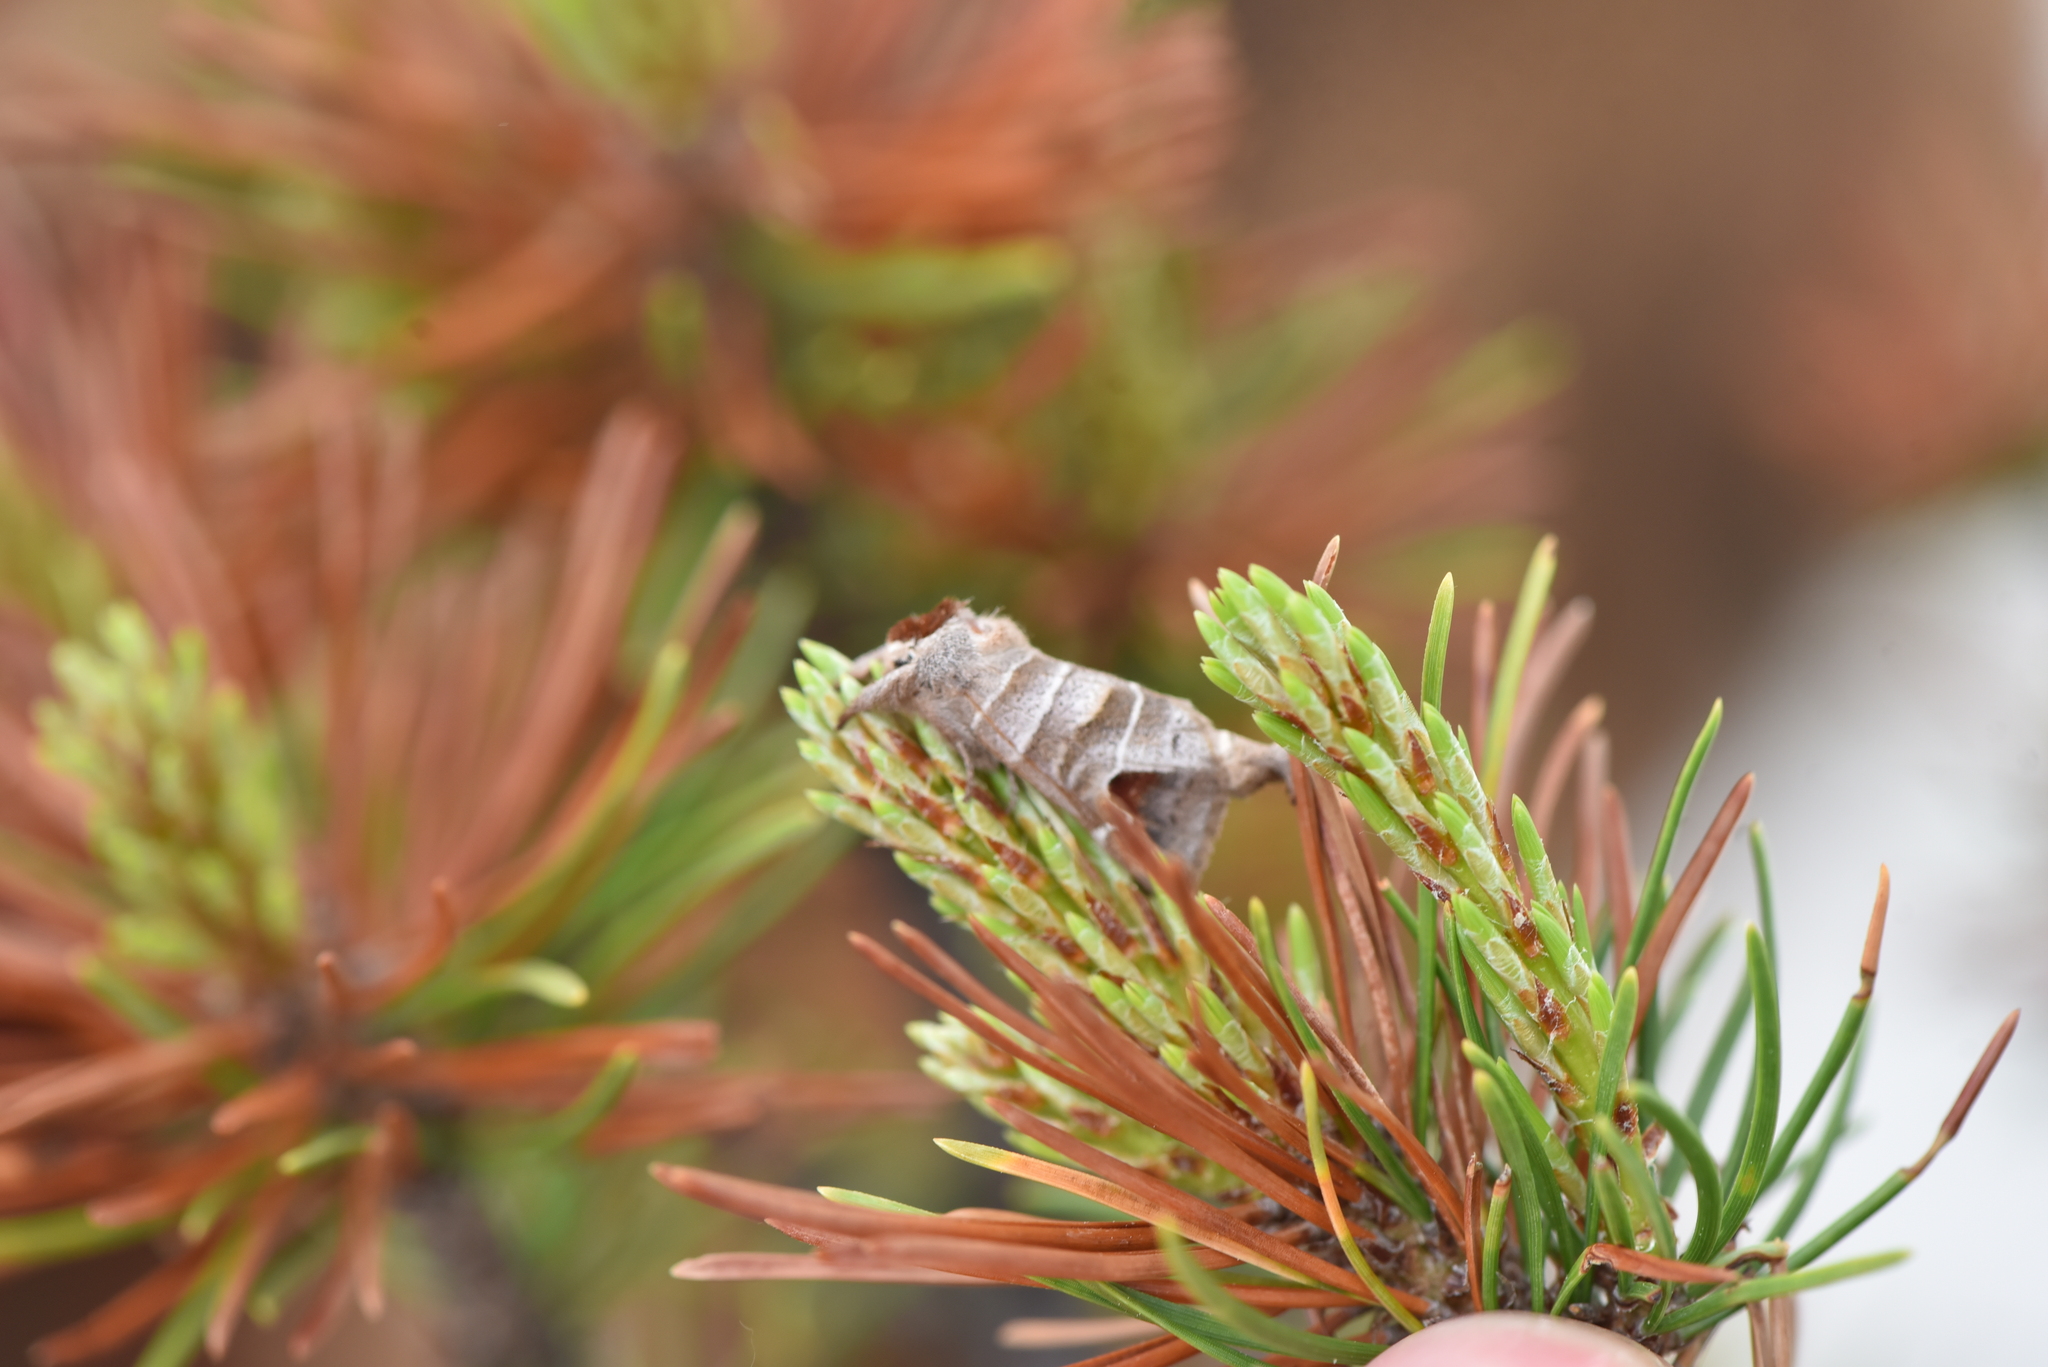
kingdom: Animalia
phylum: Arthropoda
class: Insecta
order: Lepidoptera
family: Notodontidae
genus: Clostera
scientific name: Clostera albosigma
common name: Sigmoid prominent
